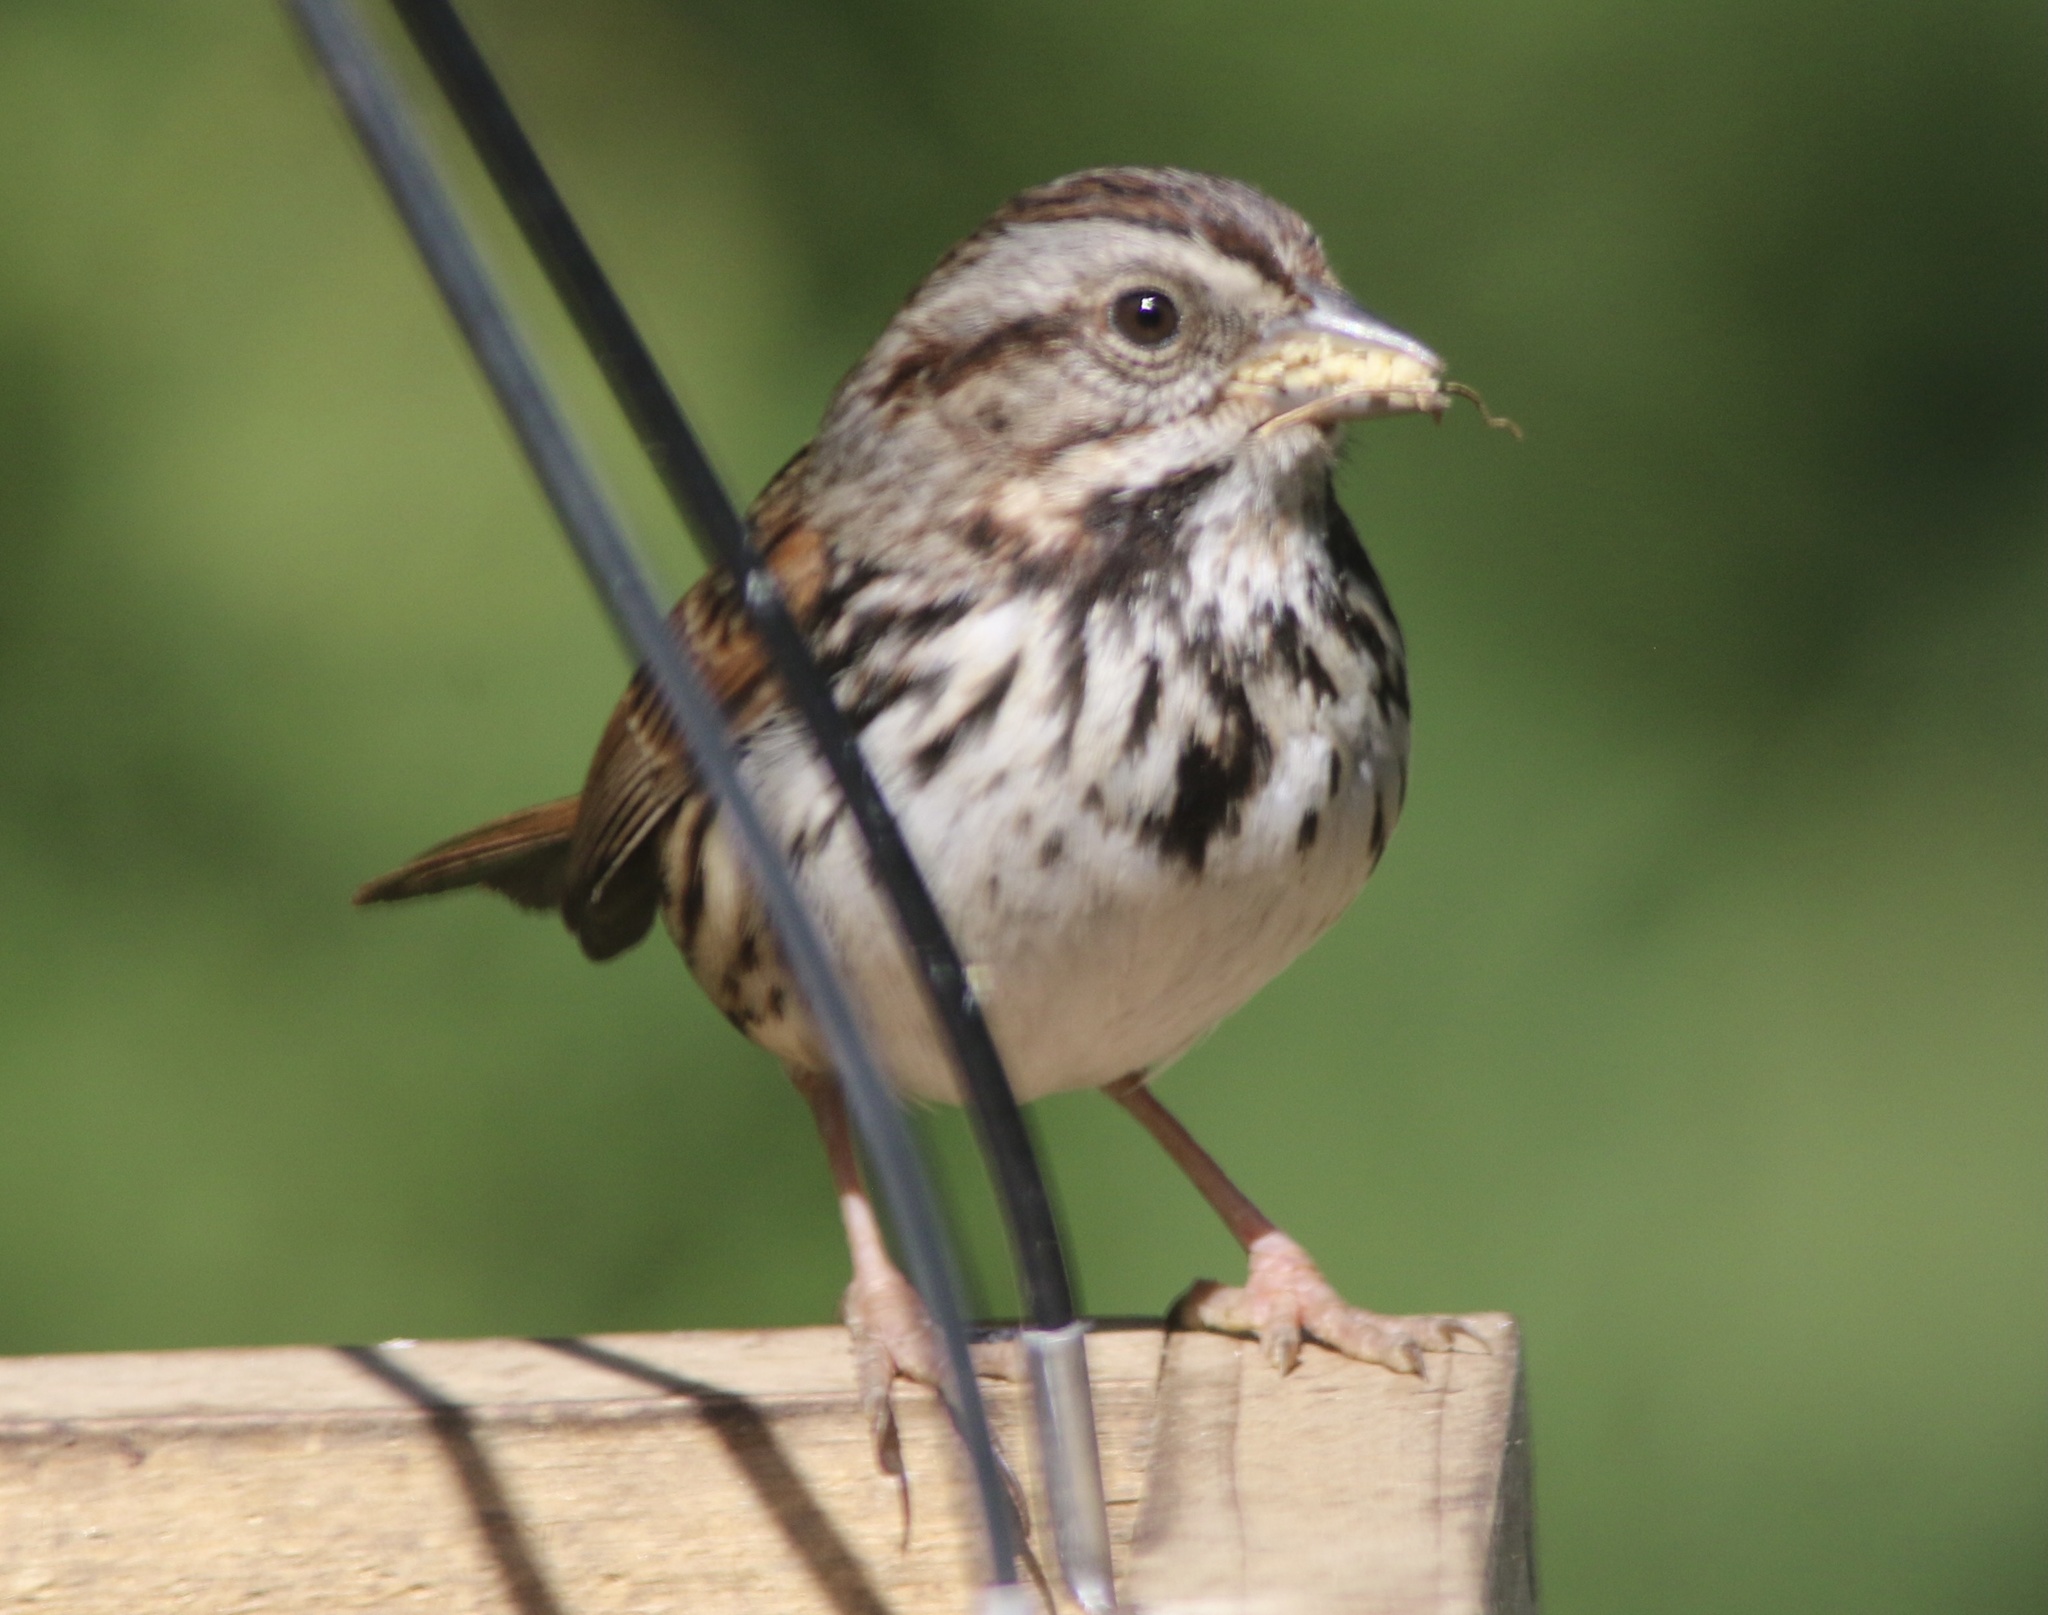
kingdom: Animalia
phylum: Chordata
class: Aves
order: Passeriformes
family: Passerellidae
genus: Melospiza
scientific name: Melospiza melodia
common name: Song sparrow
